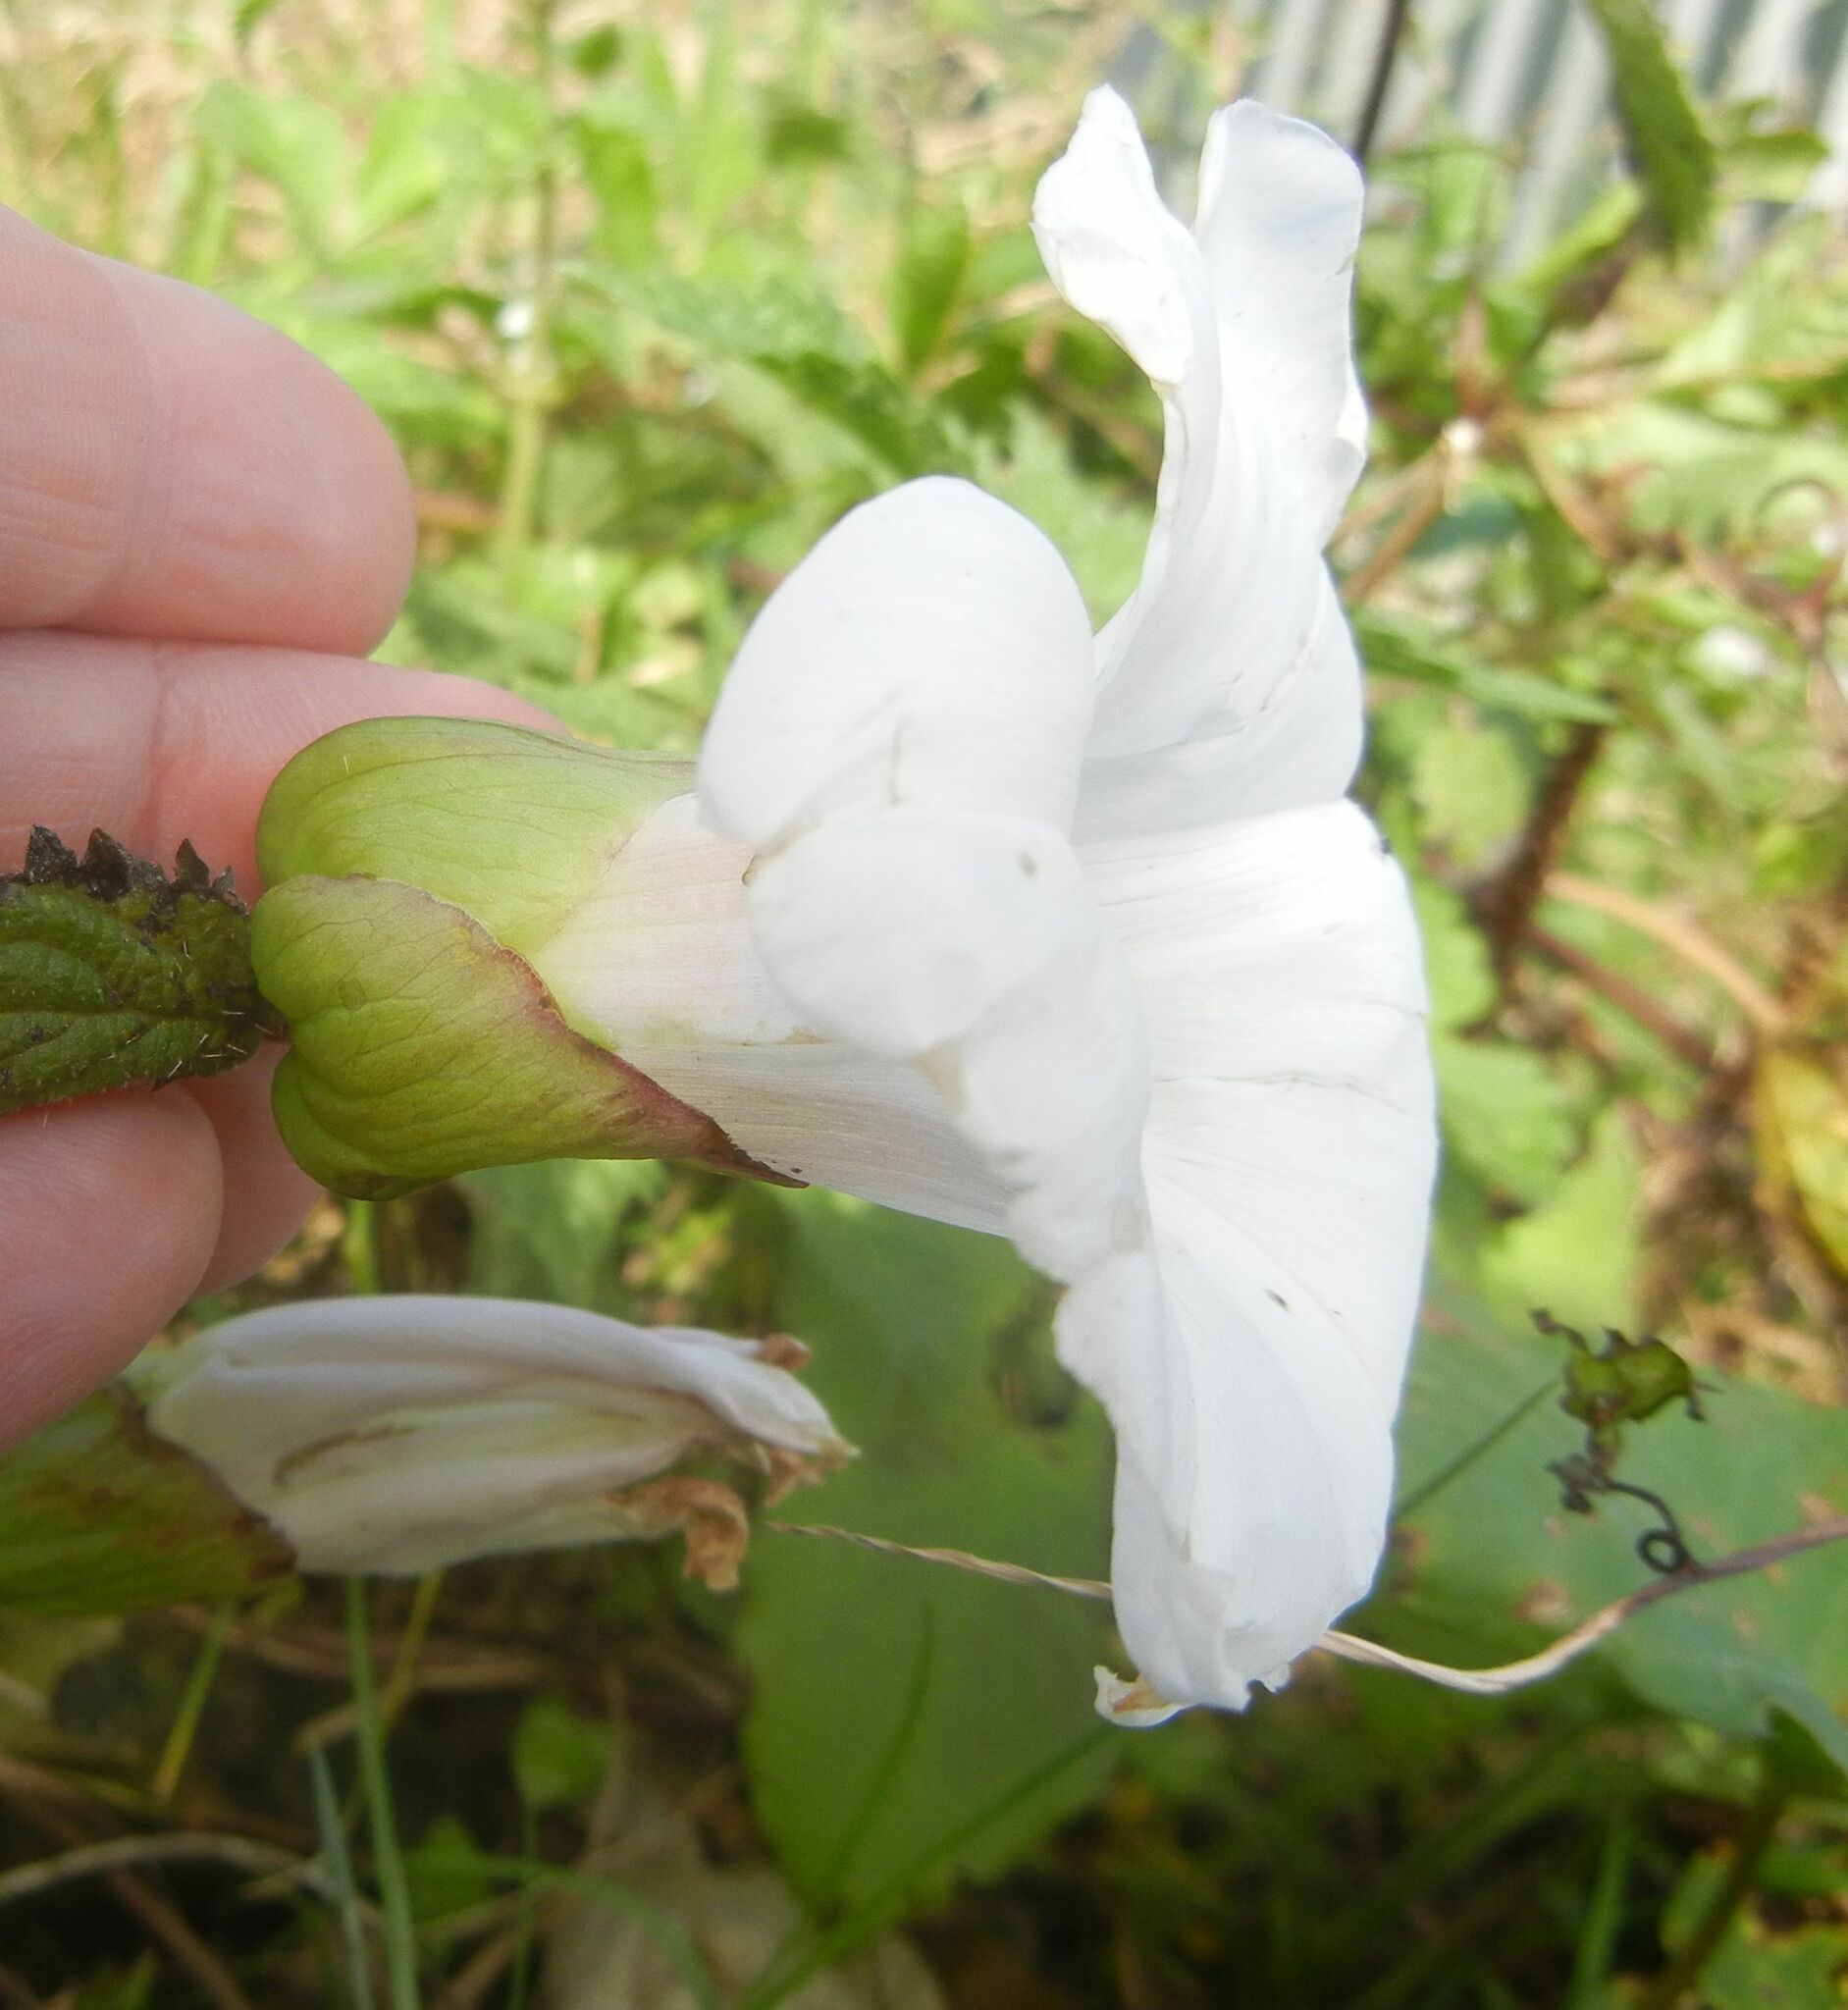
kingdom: Plantae
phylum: Tracheophyta
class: Magnoliopsida
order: Solanales
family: Convolvulaceae
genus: Calystegia
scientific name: Calystegia silvatica
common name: Large bindweed
